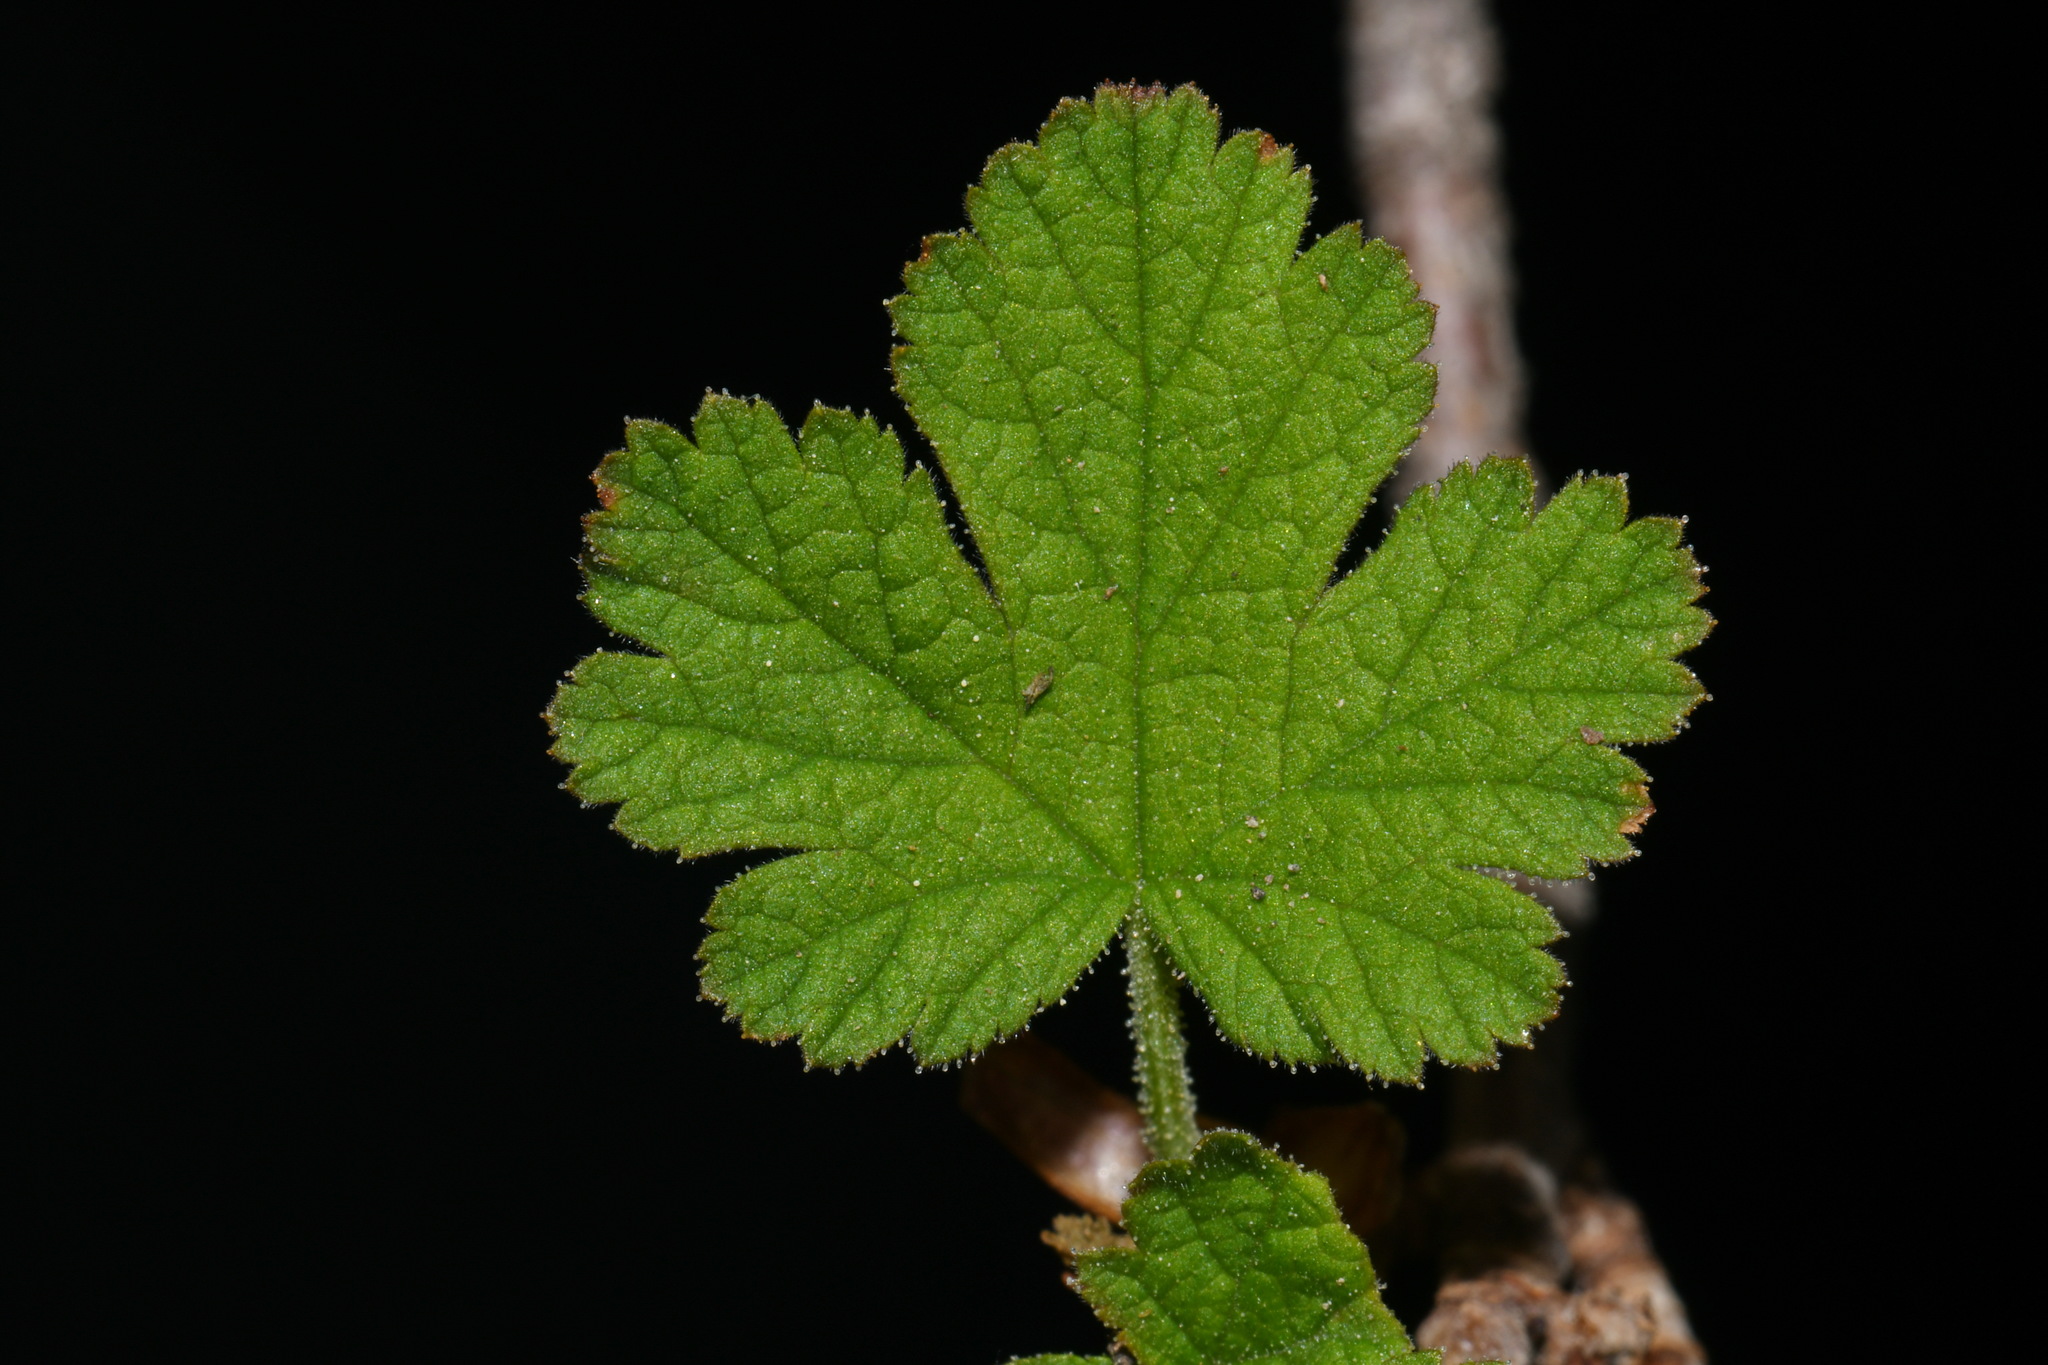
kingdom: Plantae
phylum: Tracheophyta
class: Magnoliopsida
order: Saxifragales
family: Grossulariaceae
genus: Ribes
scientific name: Ribes erythrocarpum
